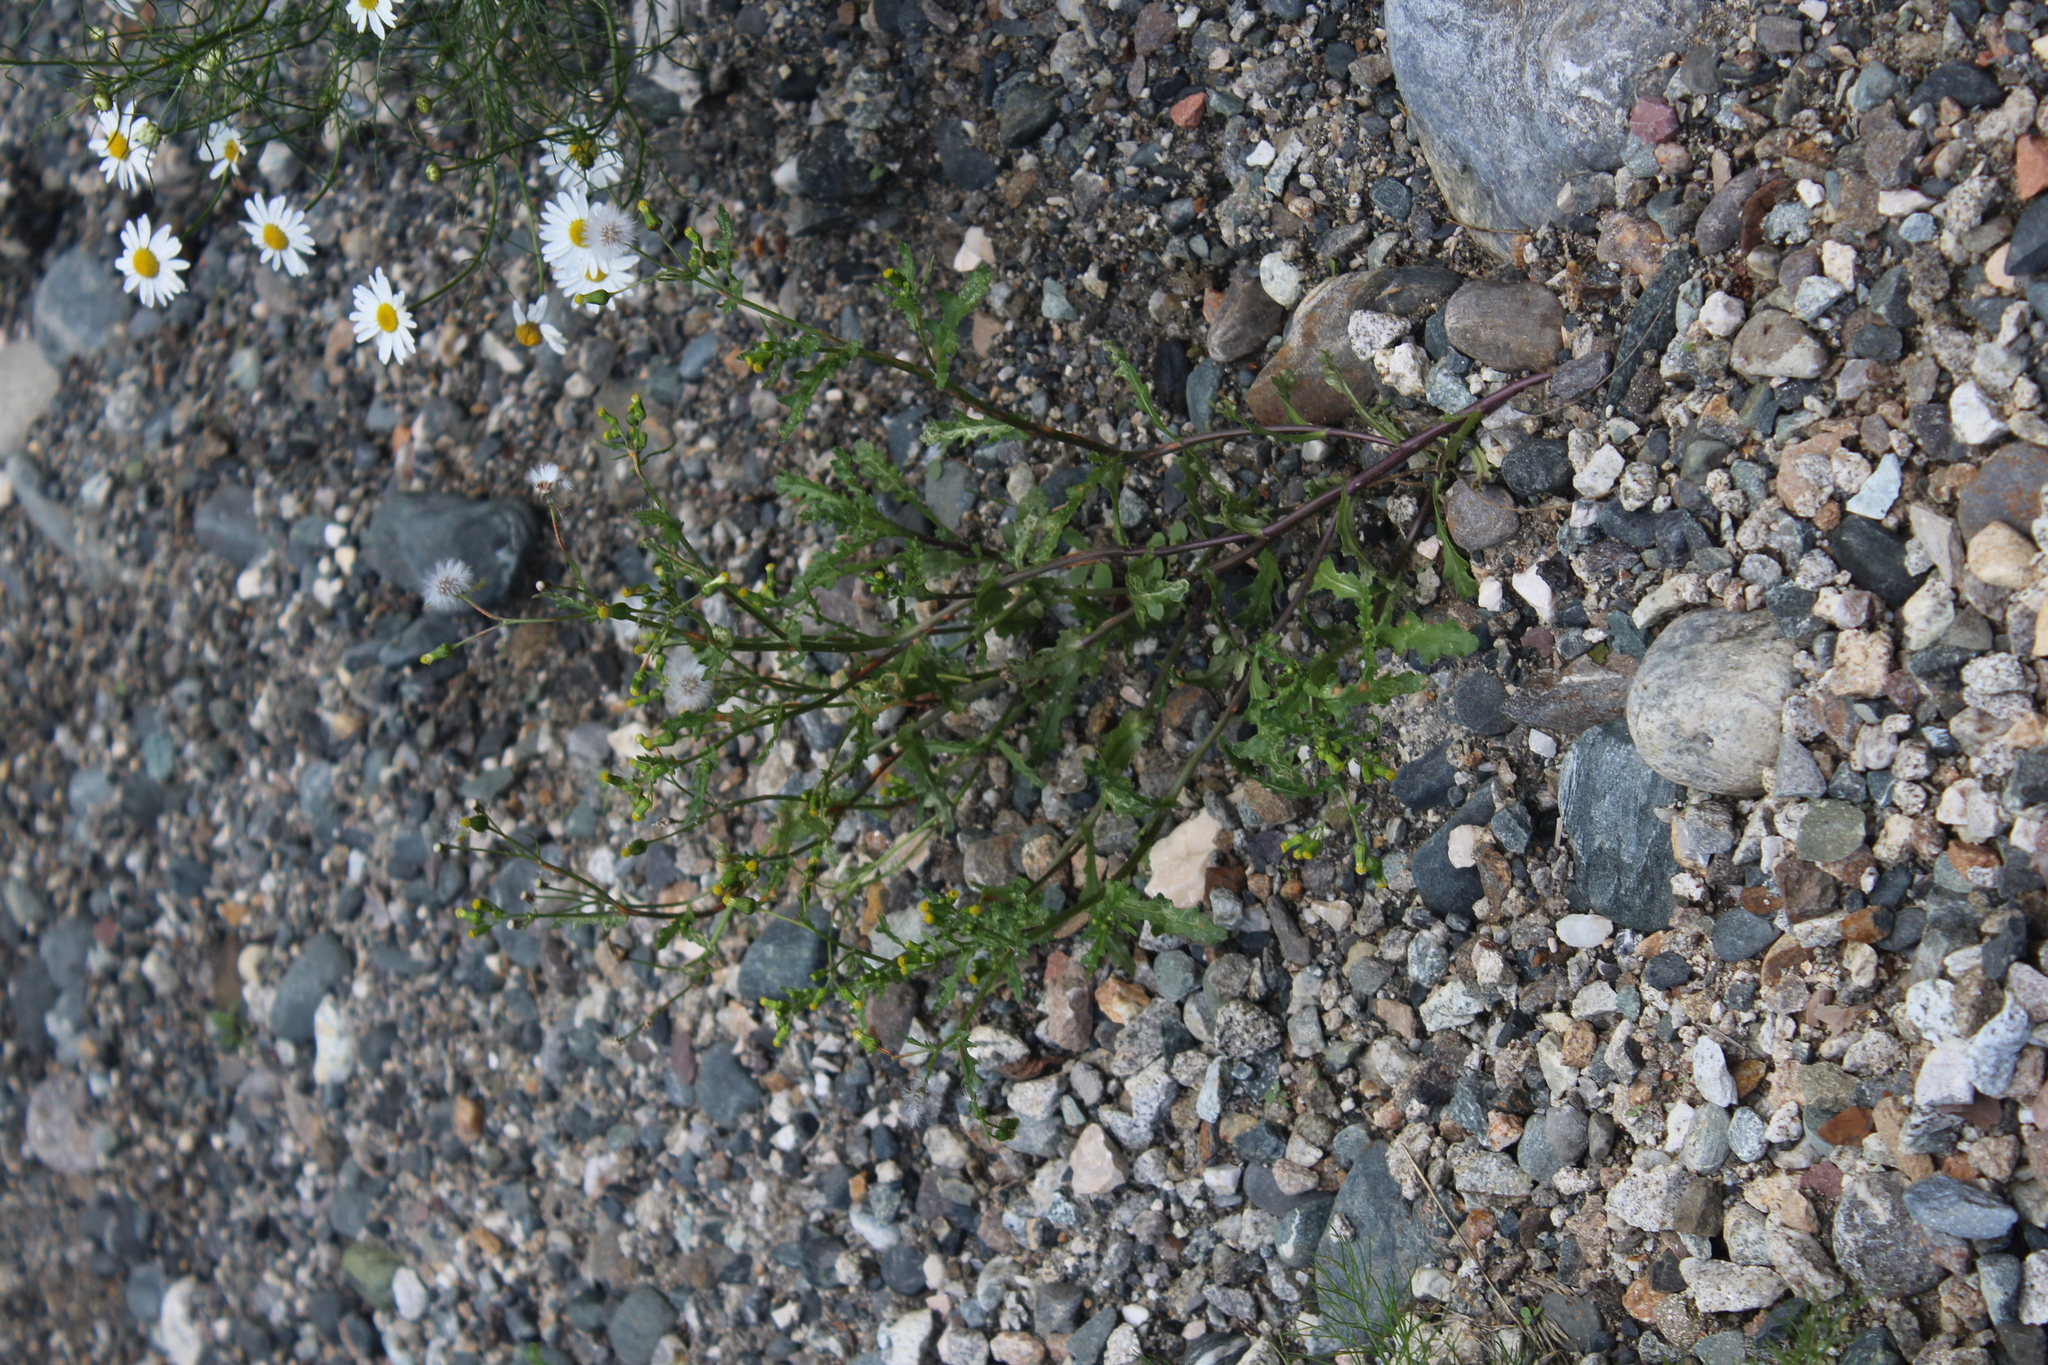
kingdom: Plantae
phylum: Tracheophyta
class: Magnoliopsida
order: Asterales
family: Asteraceae
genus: Senecio
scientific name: Senecio vulgaris
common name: Old-man-in-the-spring
